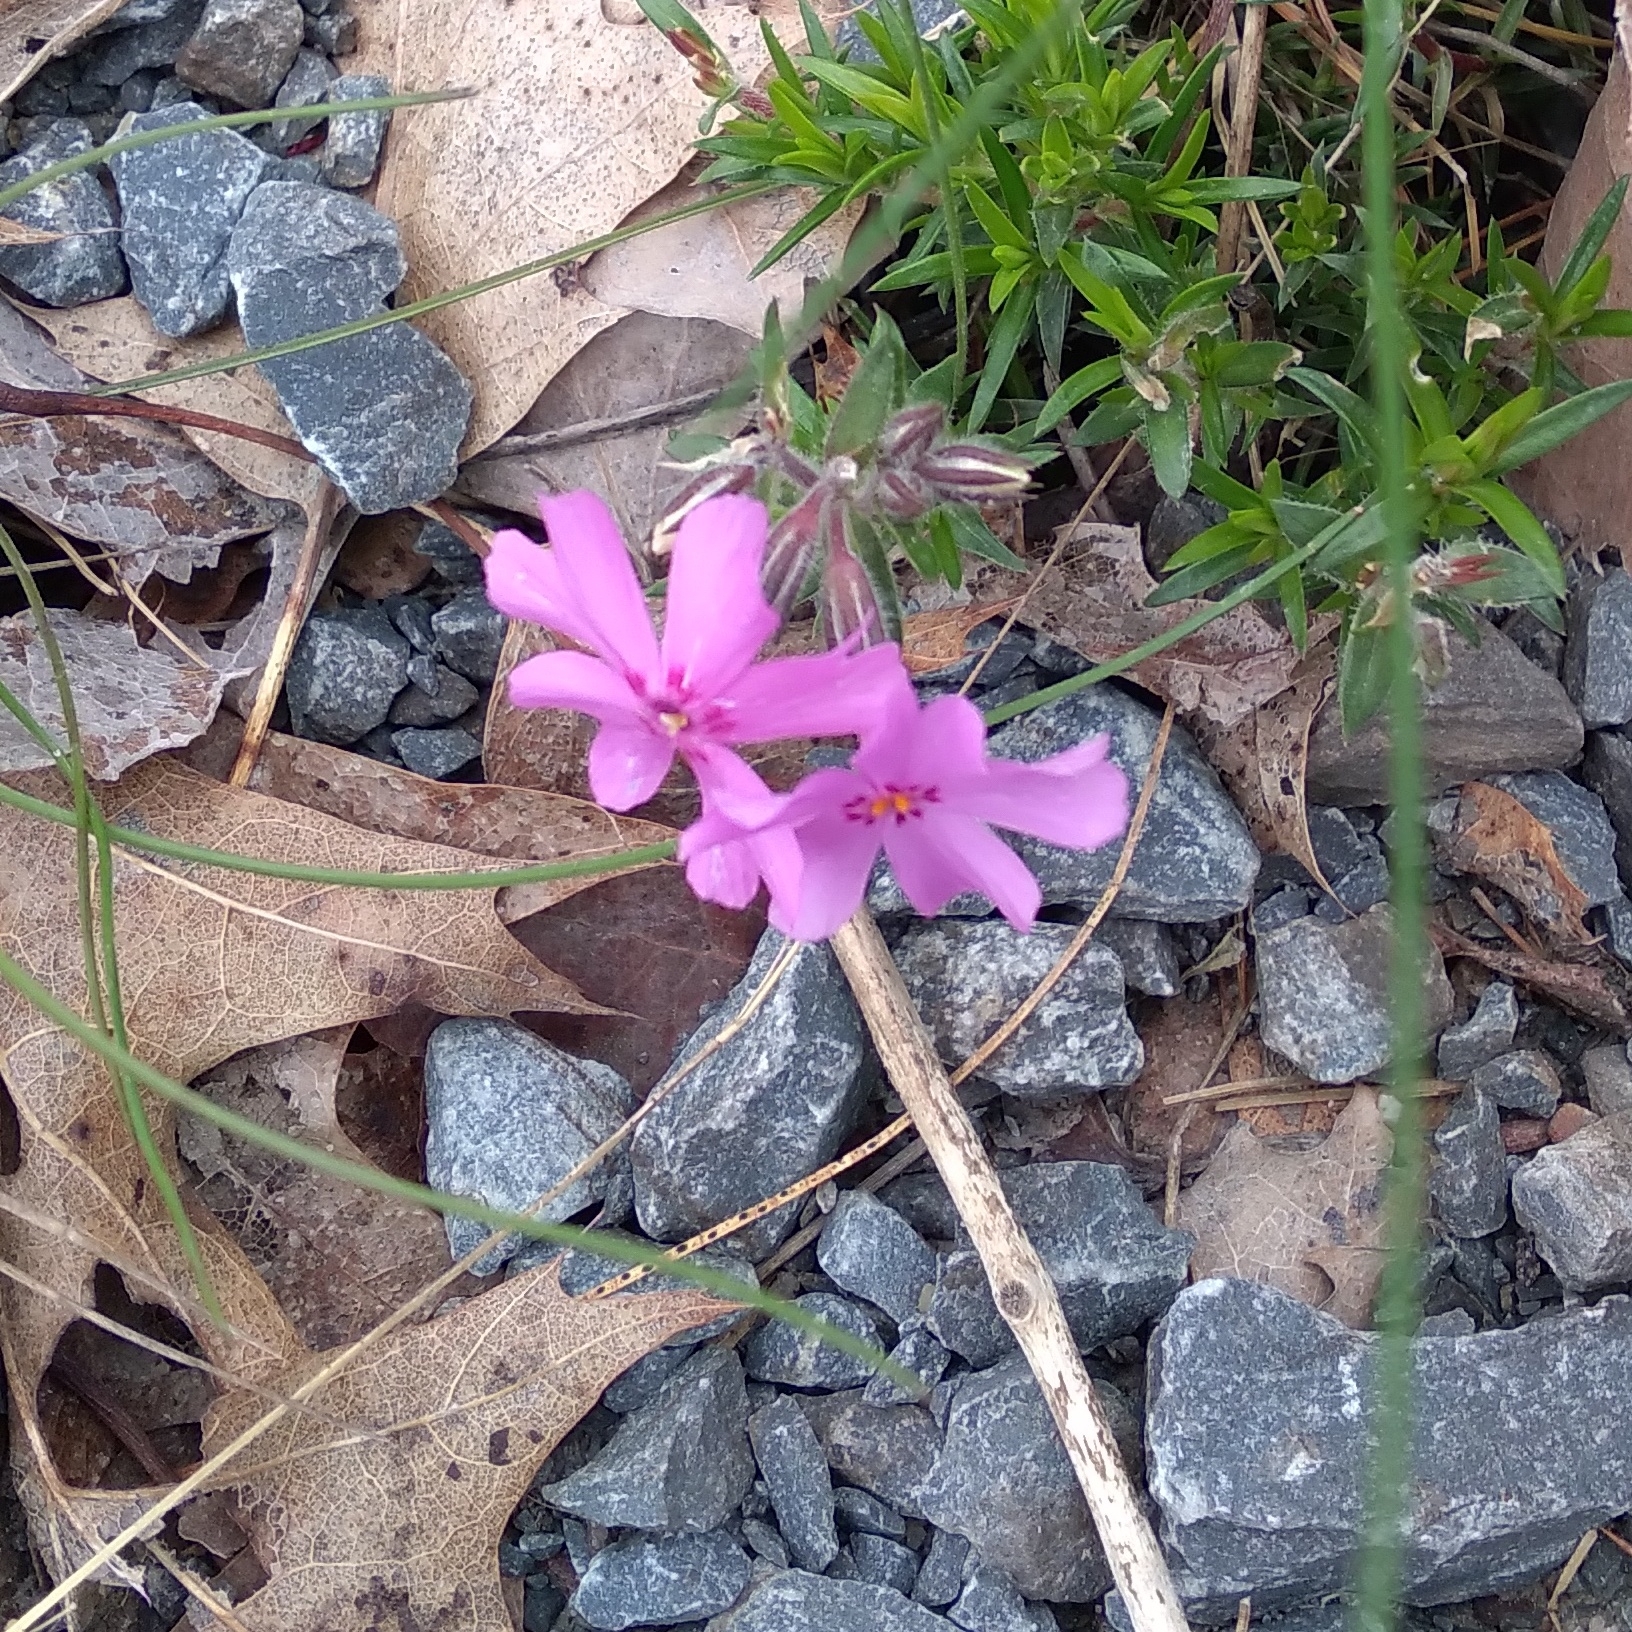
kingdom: Plantae
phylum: Tracheophyta
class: Magnoliopsida
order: Ericales
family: Polemoniaceae
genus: Phlox
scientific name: Phlox subulata
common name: Moss phlox
